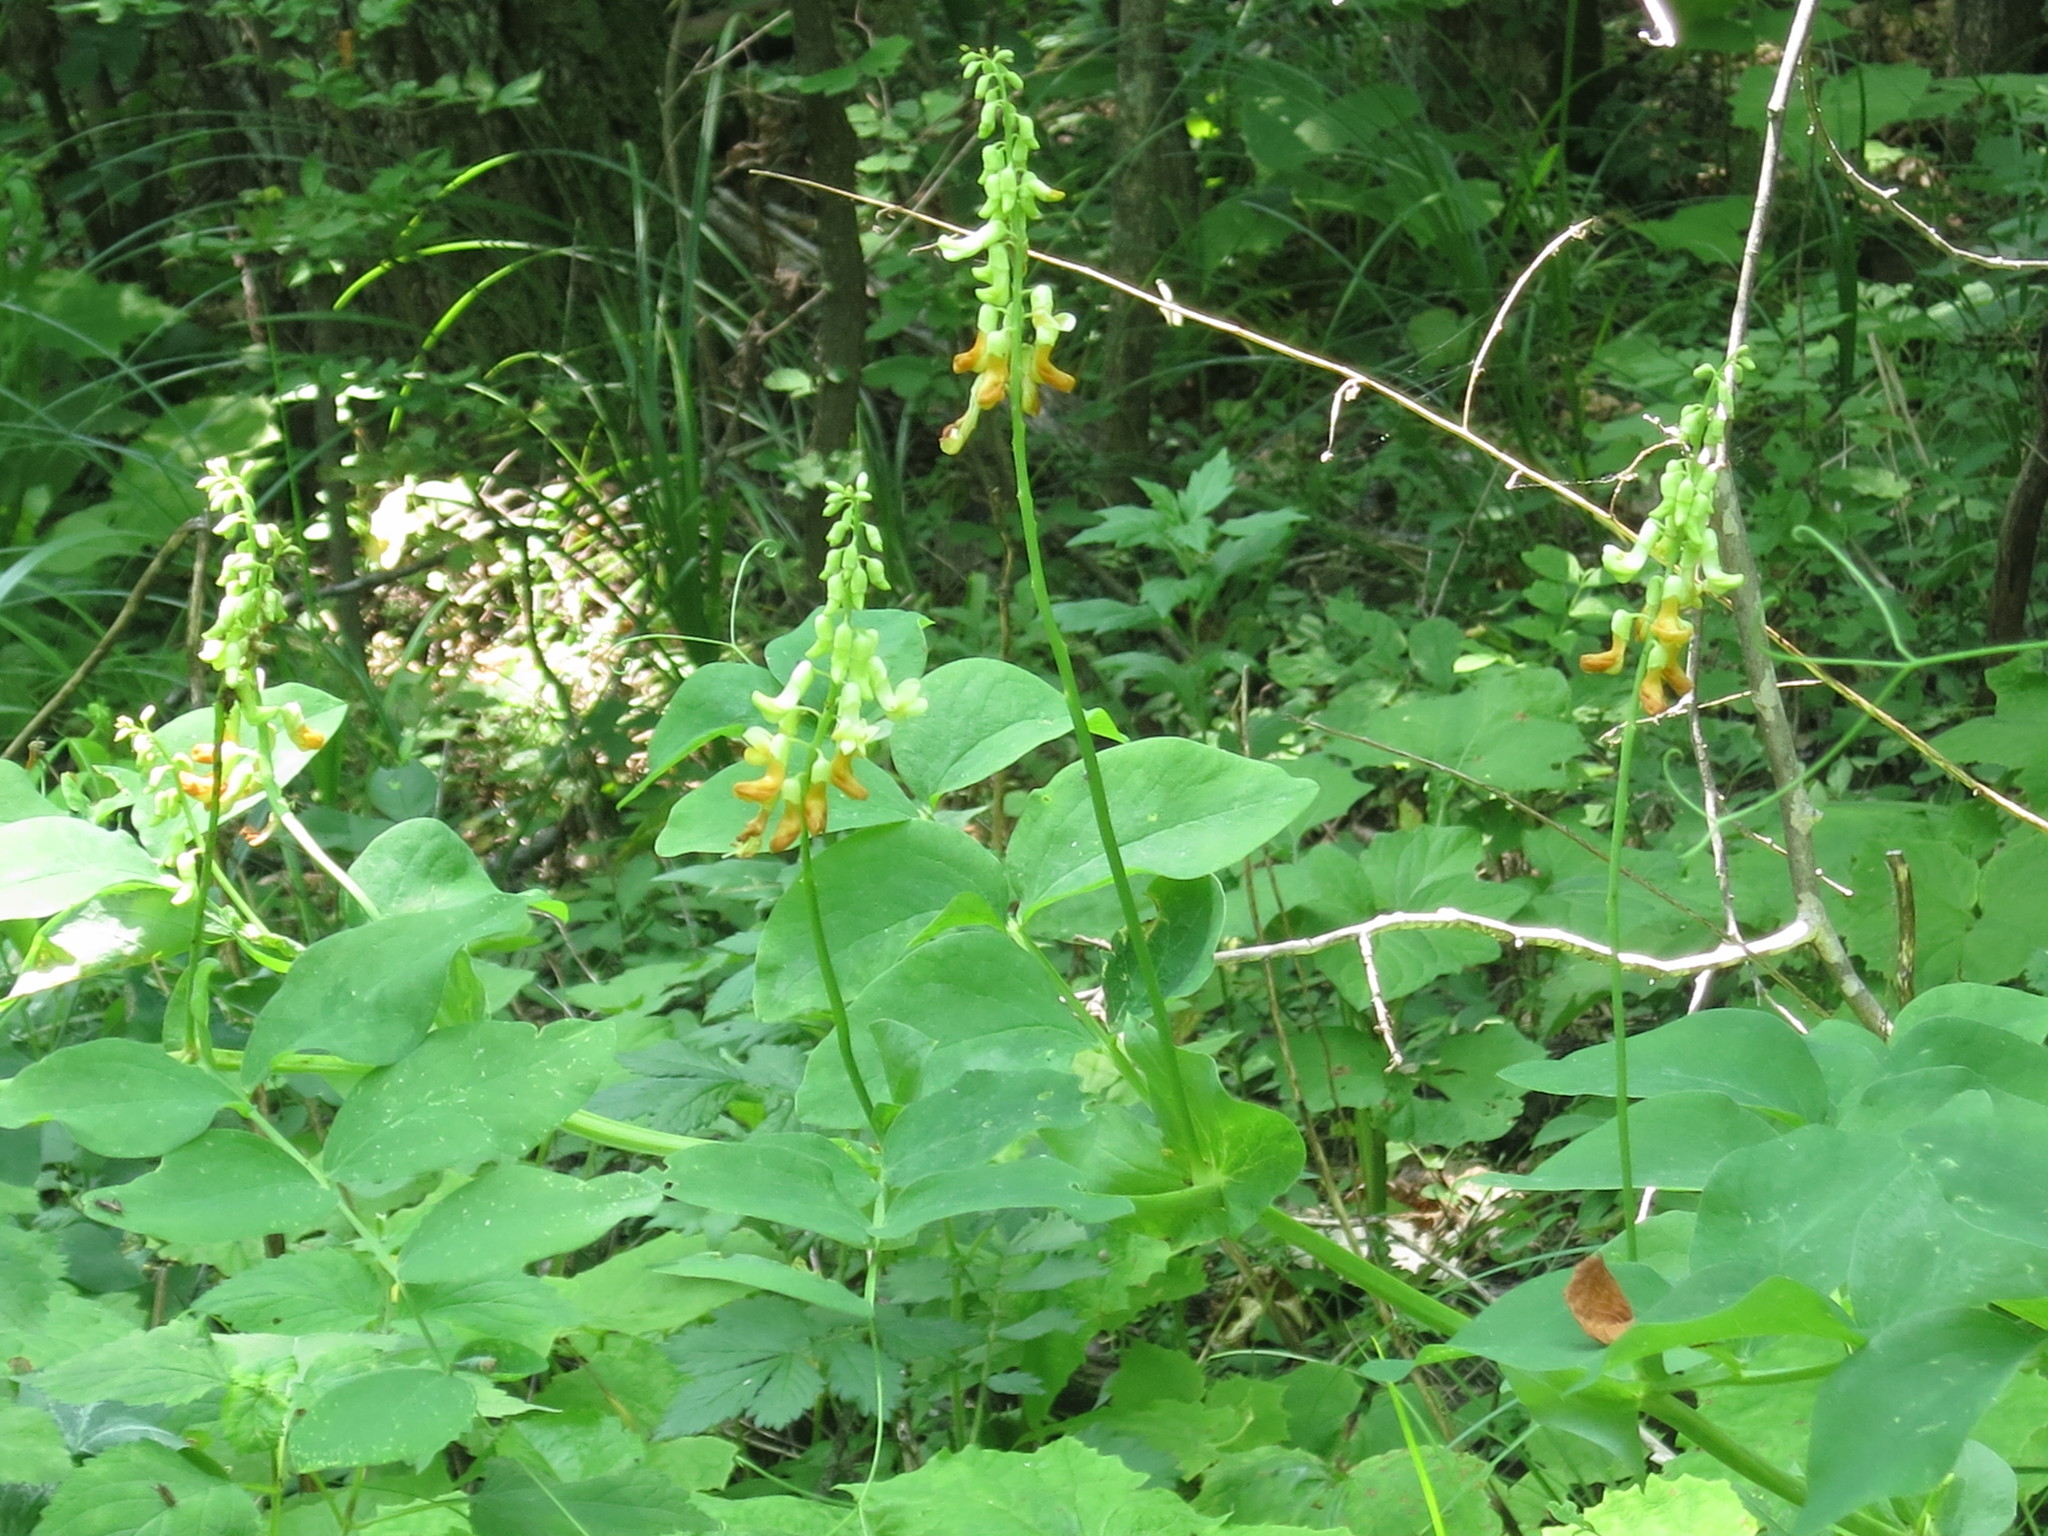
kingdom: Plantae
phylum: Tracheophyta
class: Magnoliopsida
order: Fabales
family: Fabaceae
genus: Lathyrus
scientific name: Lathyrus davidii
